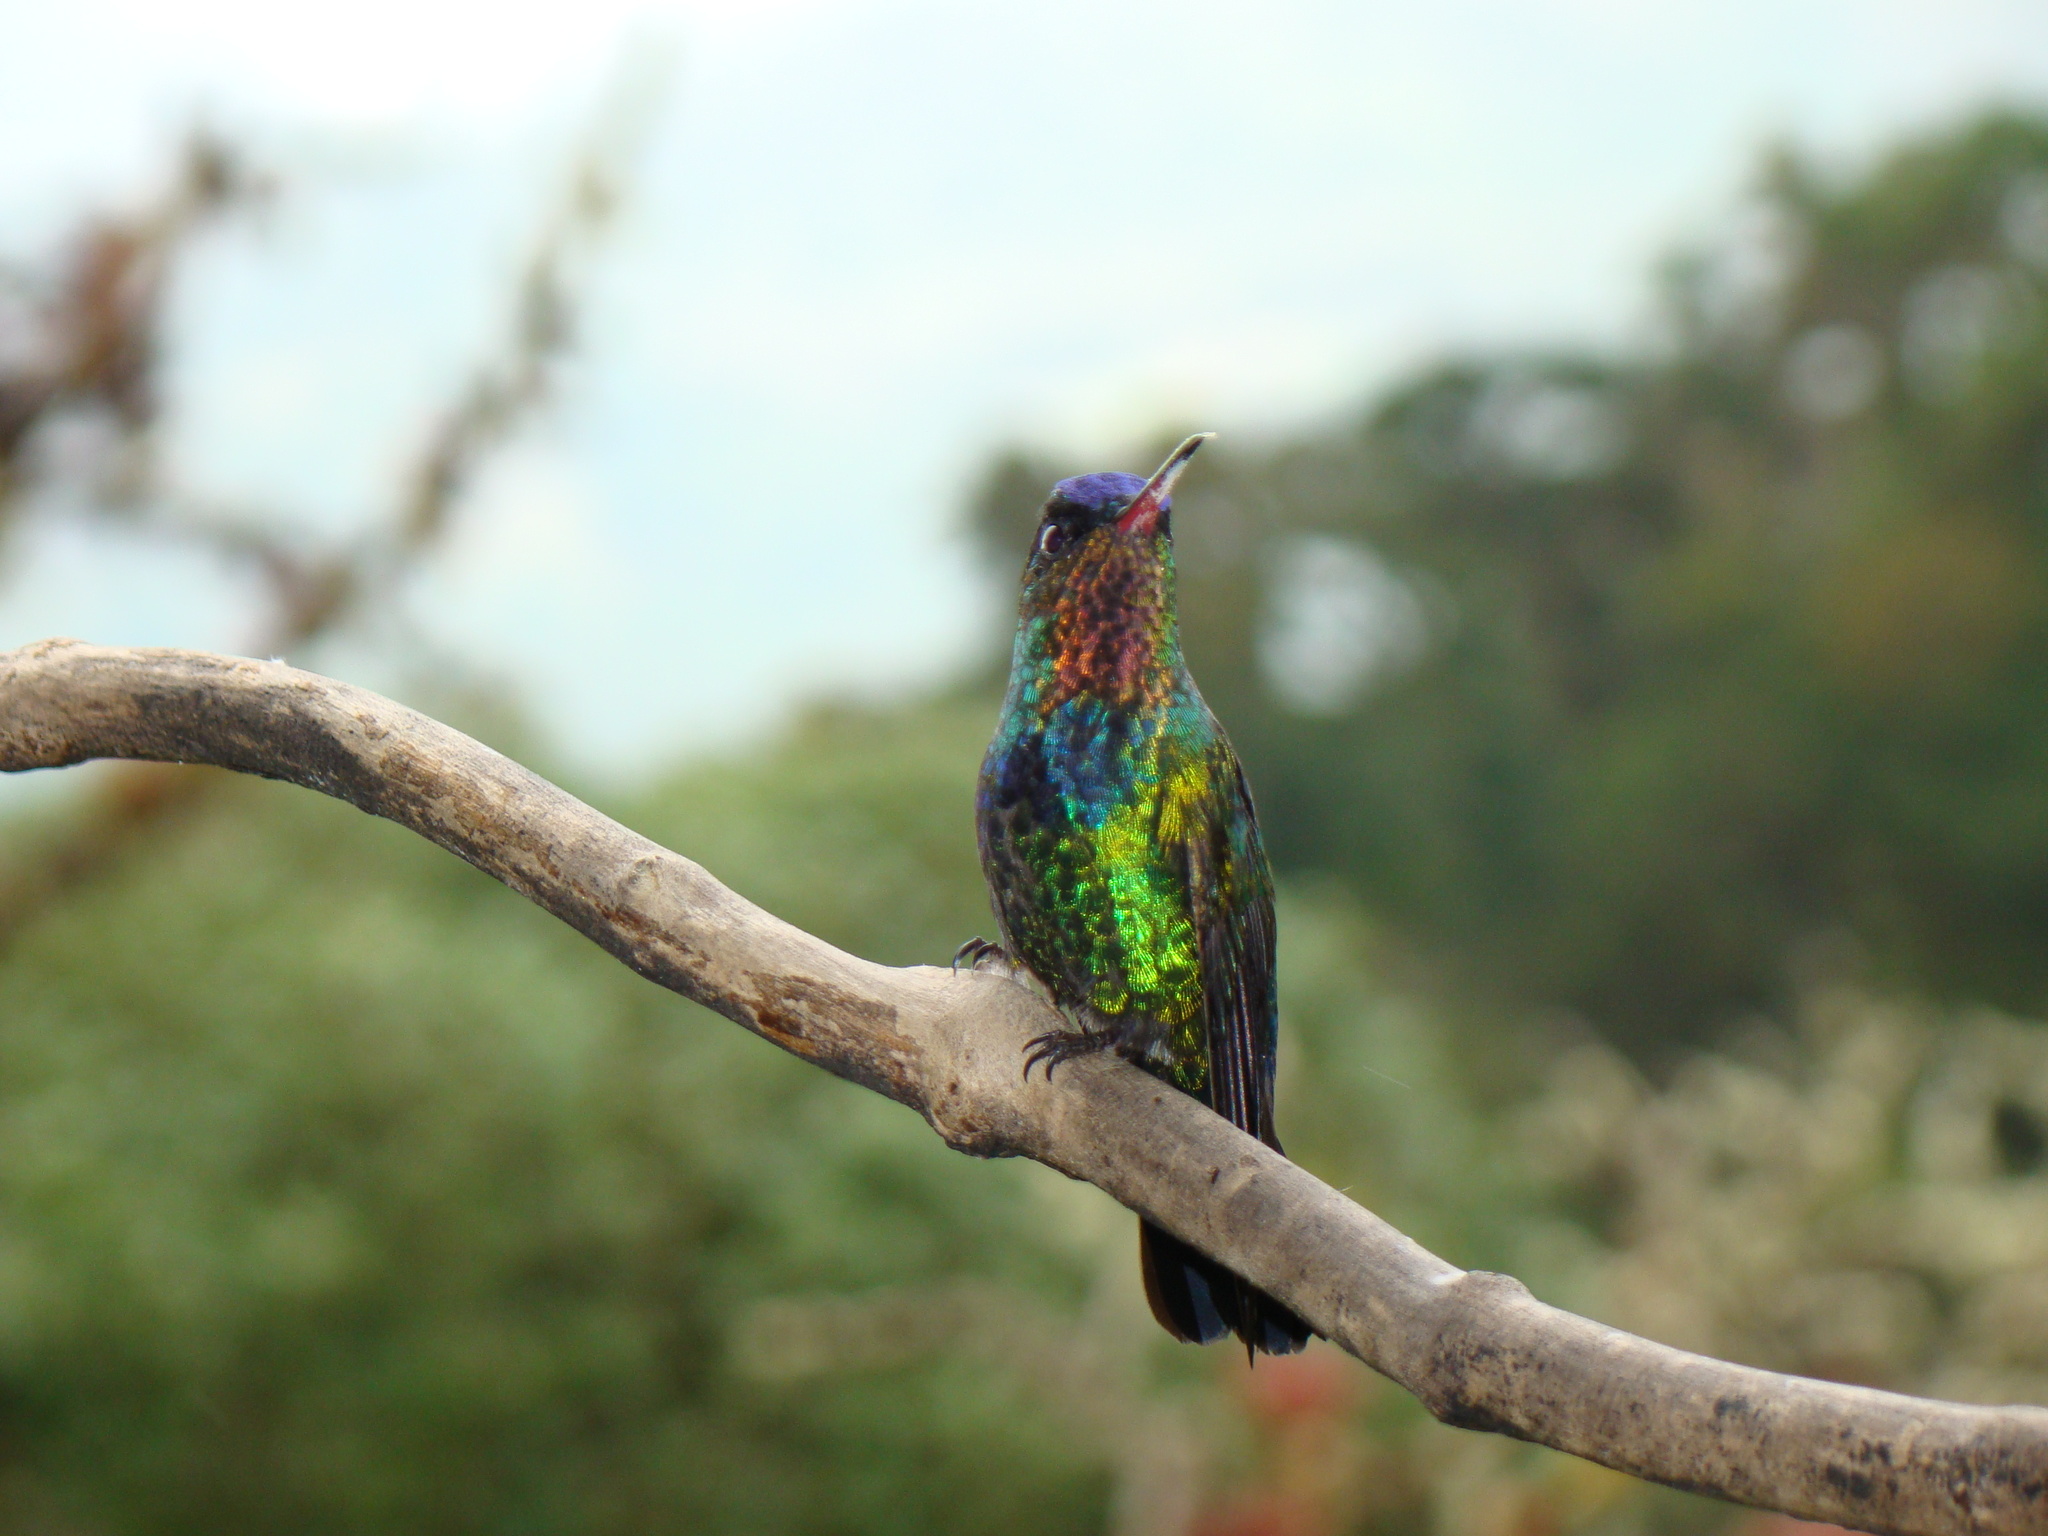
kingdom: Animalia
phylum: Chordata
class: Aves
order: Apodiformes
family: Trochilidae
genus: Panterpe
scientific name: Panterpe insignis
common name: Fiery-throated hummingbird
